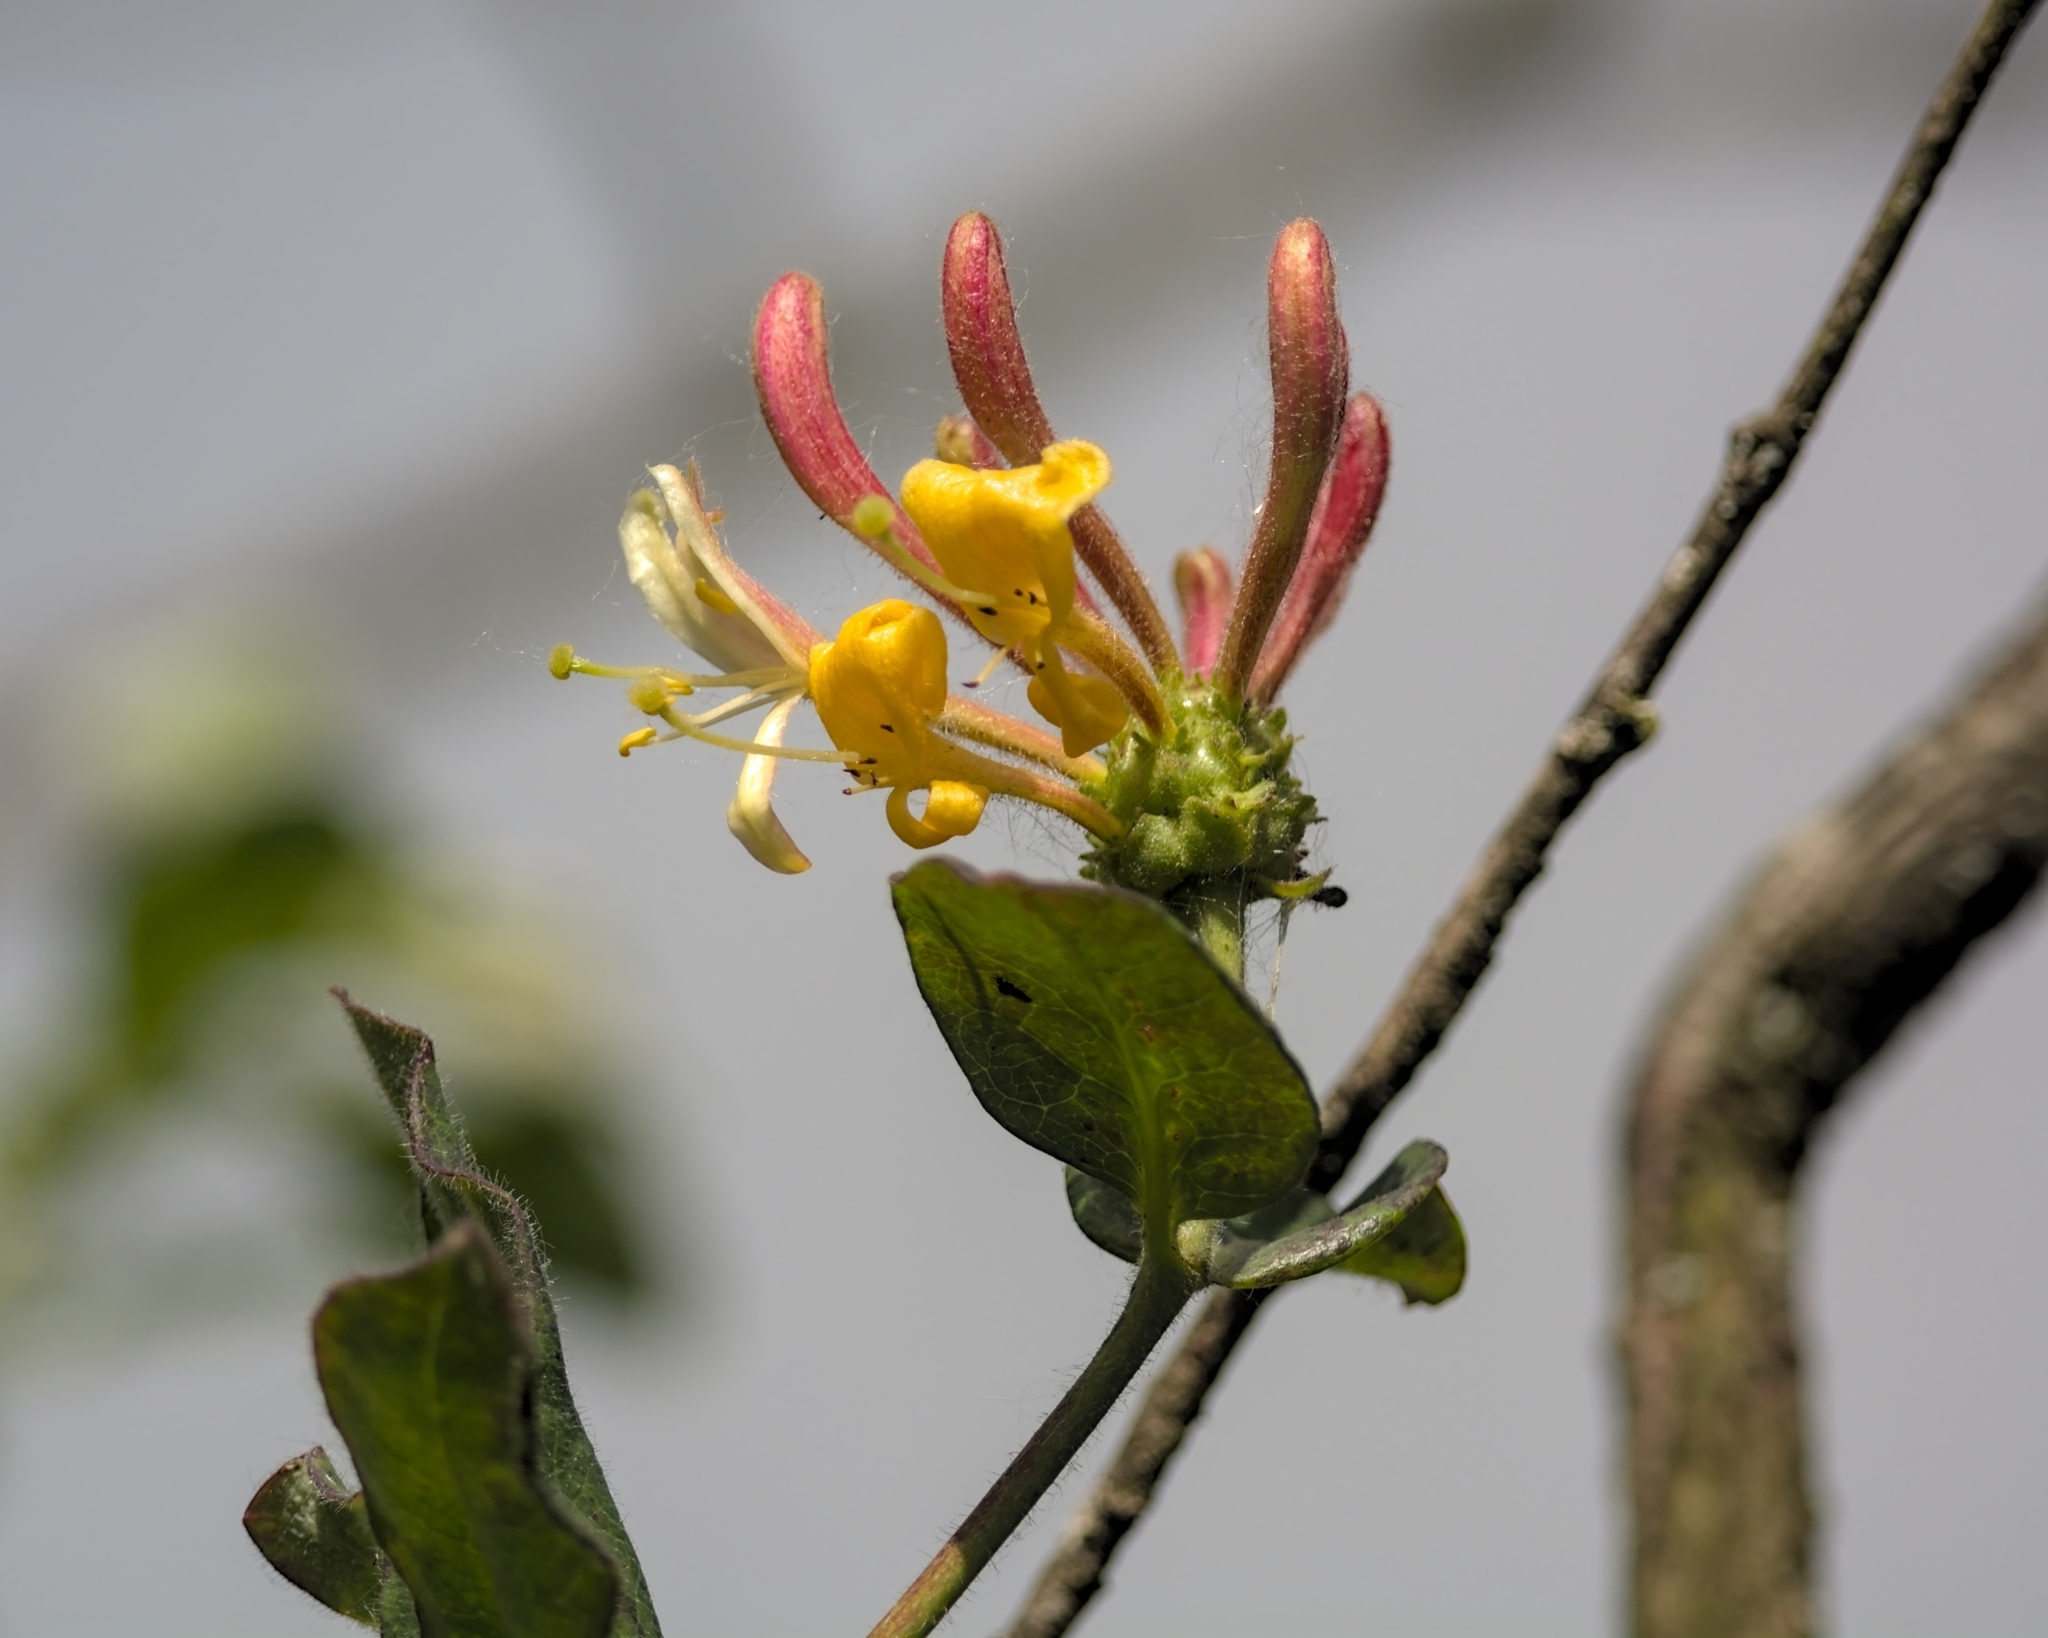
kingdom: Plantae
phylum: Tracheophyta
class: Magnoliopsida
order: Dipsacales
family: Caprifoliaceae
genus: Lonicera
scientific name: Lonicera periclymenum
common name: European honeysuckle
